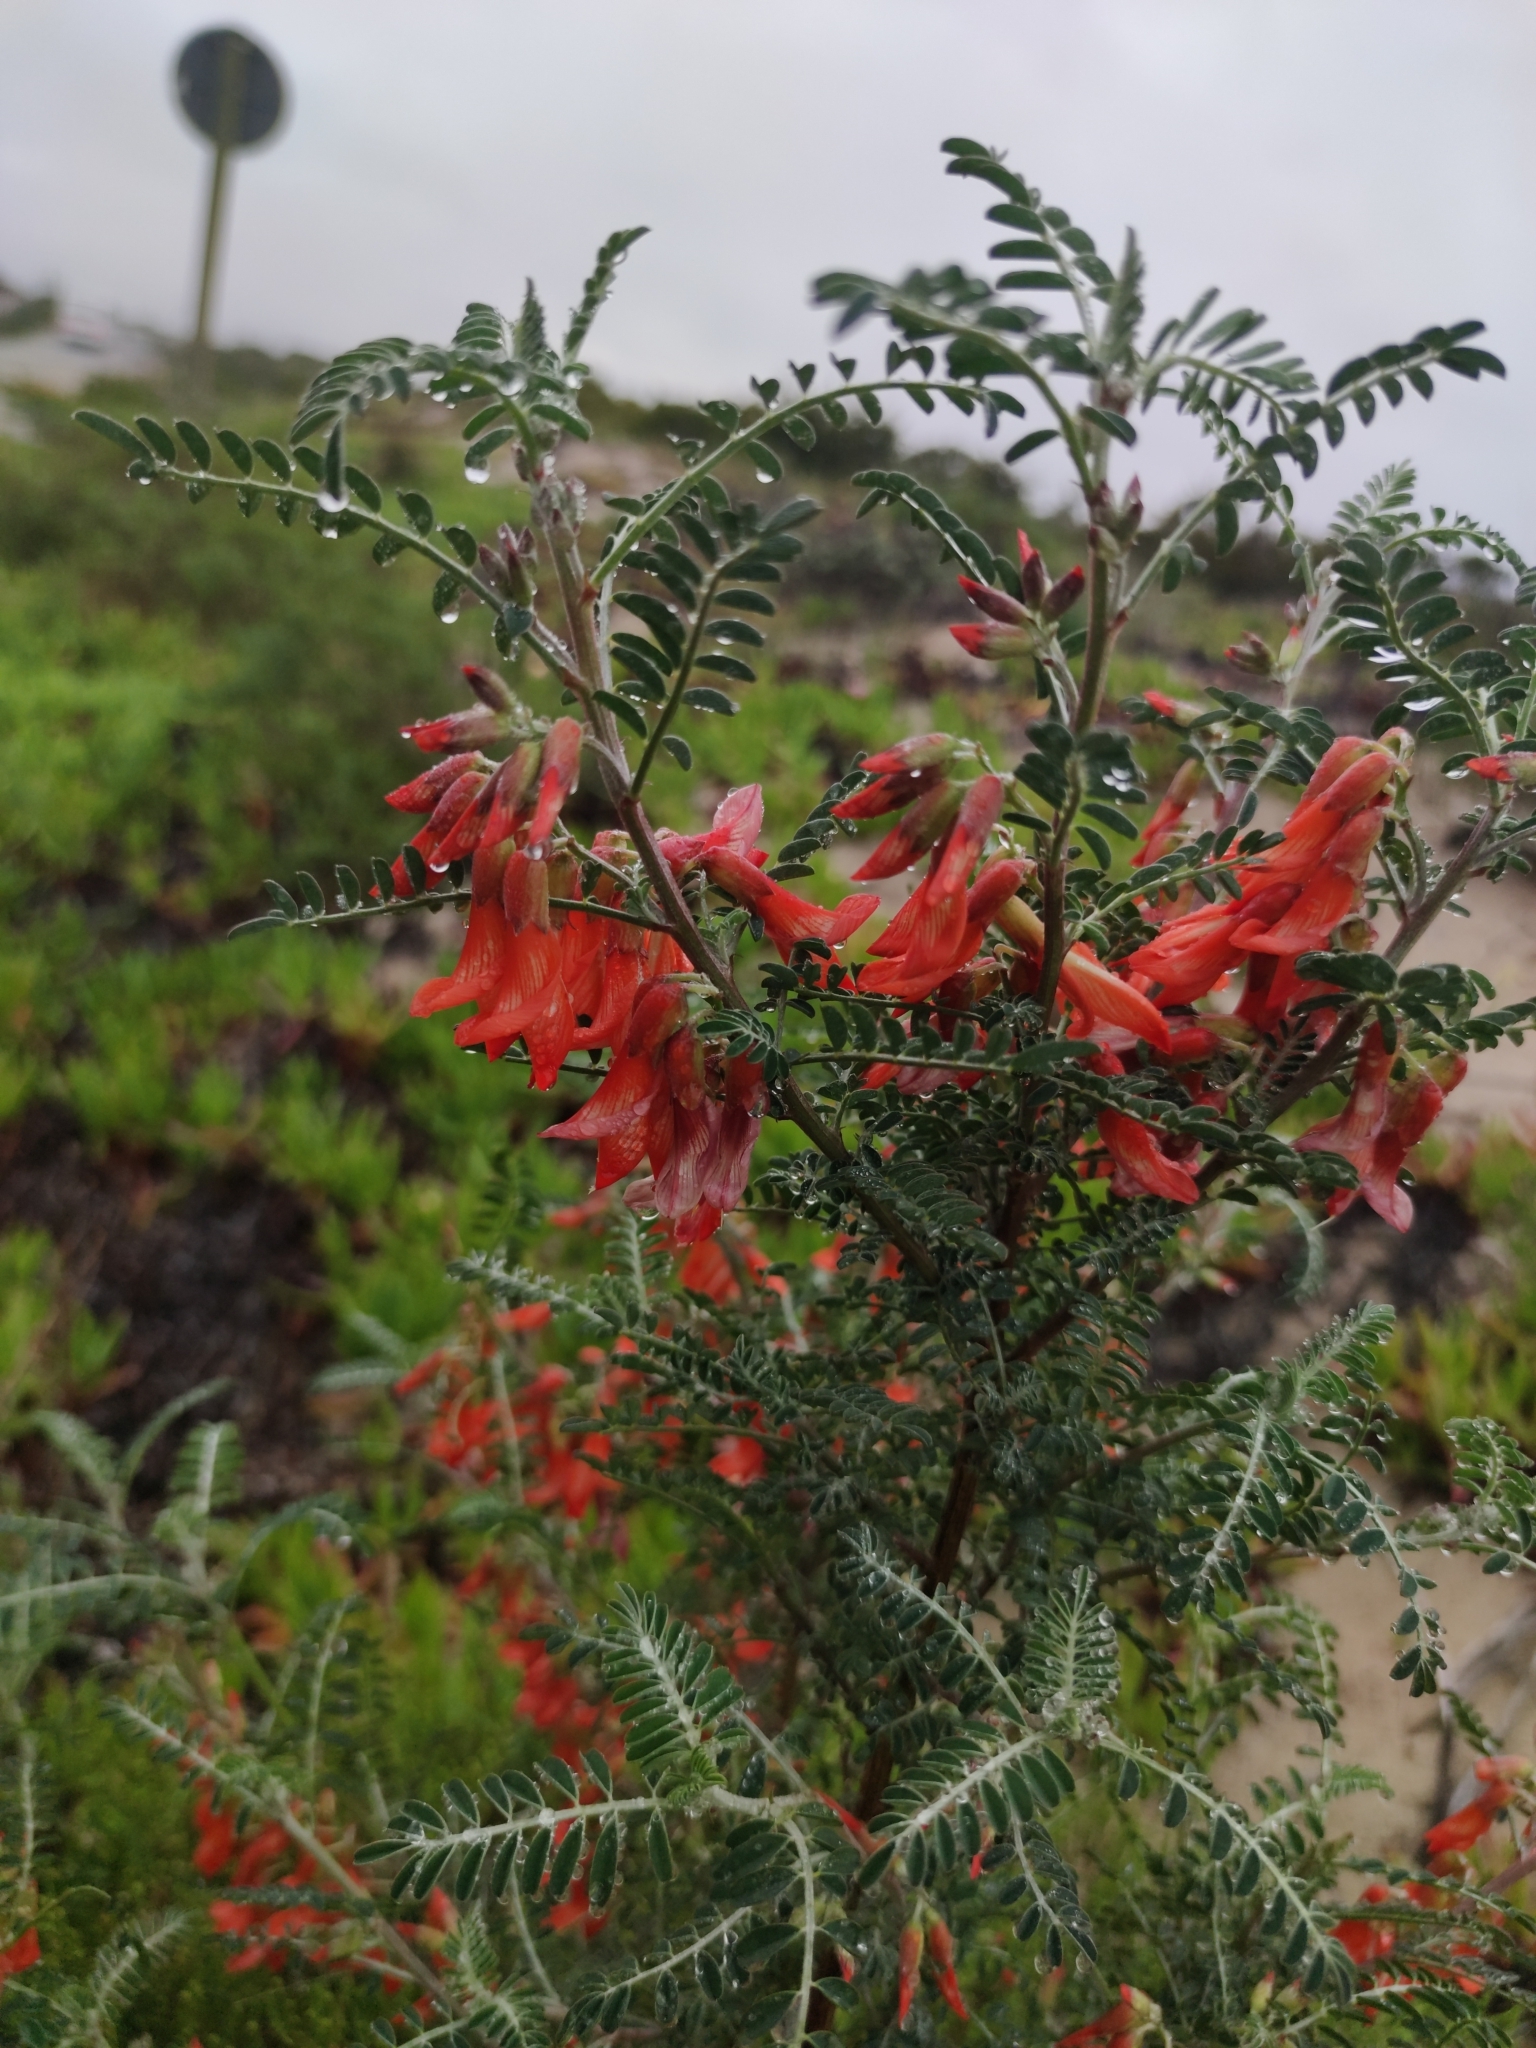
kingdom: Plantae
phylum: Tracheophyta
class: Magnoliopsida
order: Fabales
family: Fabaceae
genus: Lessertia
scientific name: Lessertia frutescens
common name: Balloon-pea
